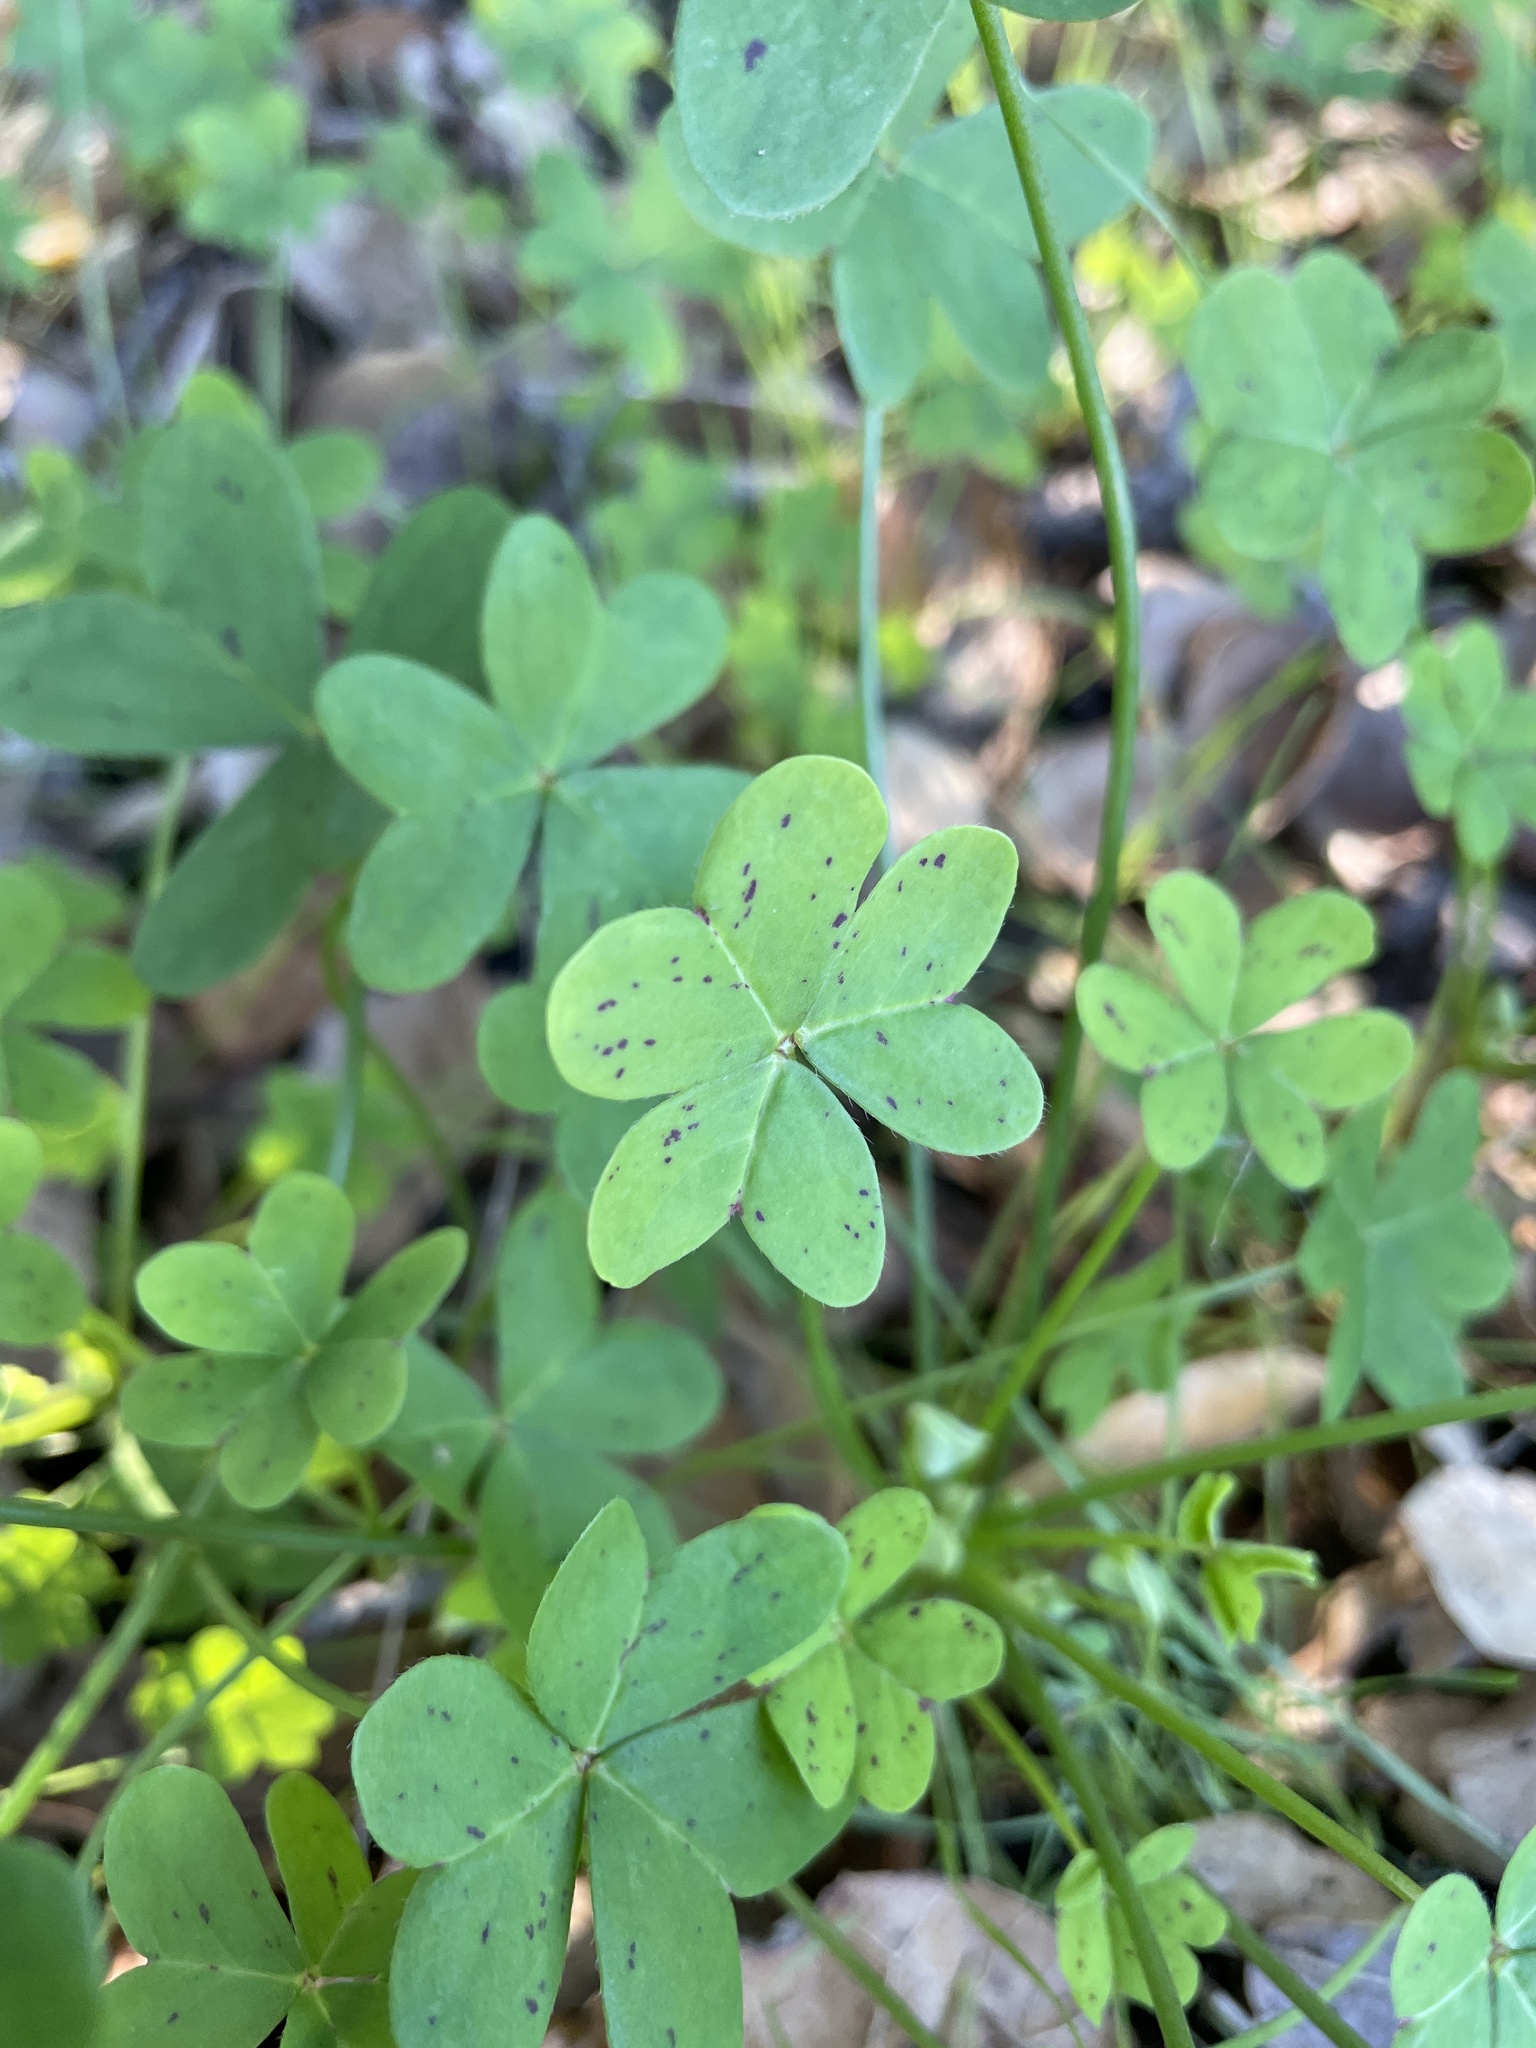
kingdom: Plantae
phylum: Tracheophyta
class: Magnoliopsida
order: Oxalidales
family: Oxalidaceae
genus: Oxalis
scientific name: Oxalis pes-caprae
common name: Bermuda-buttercup
